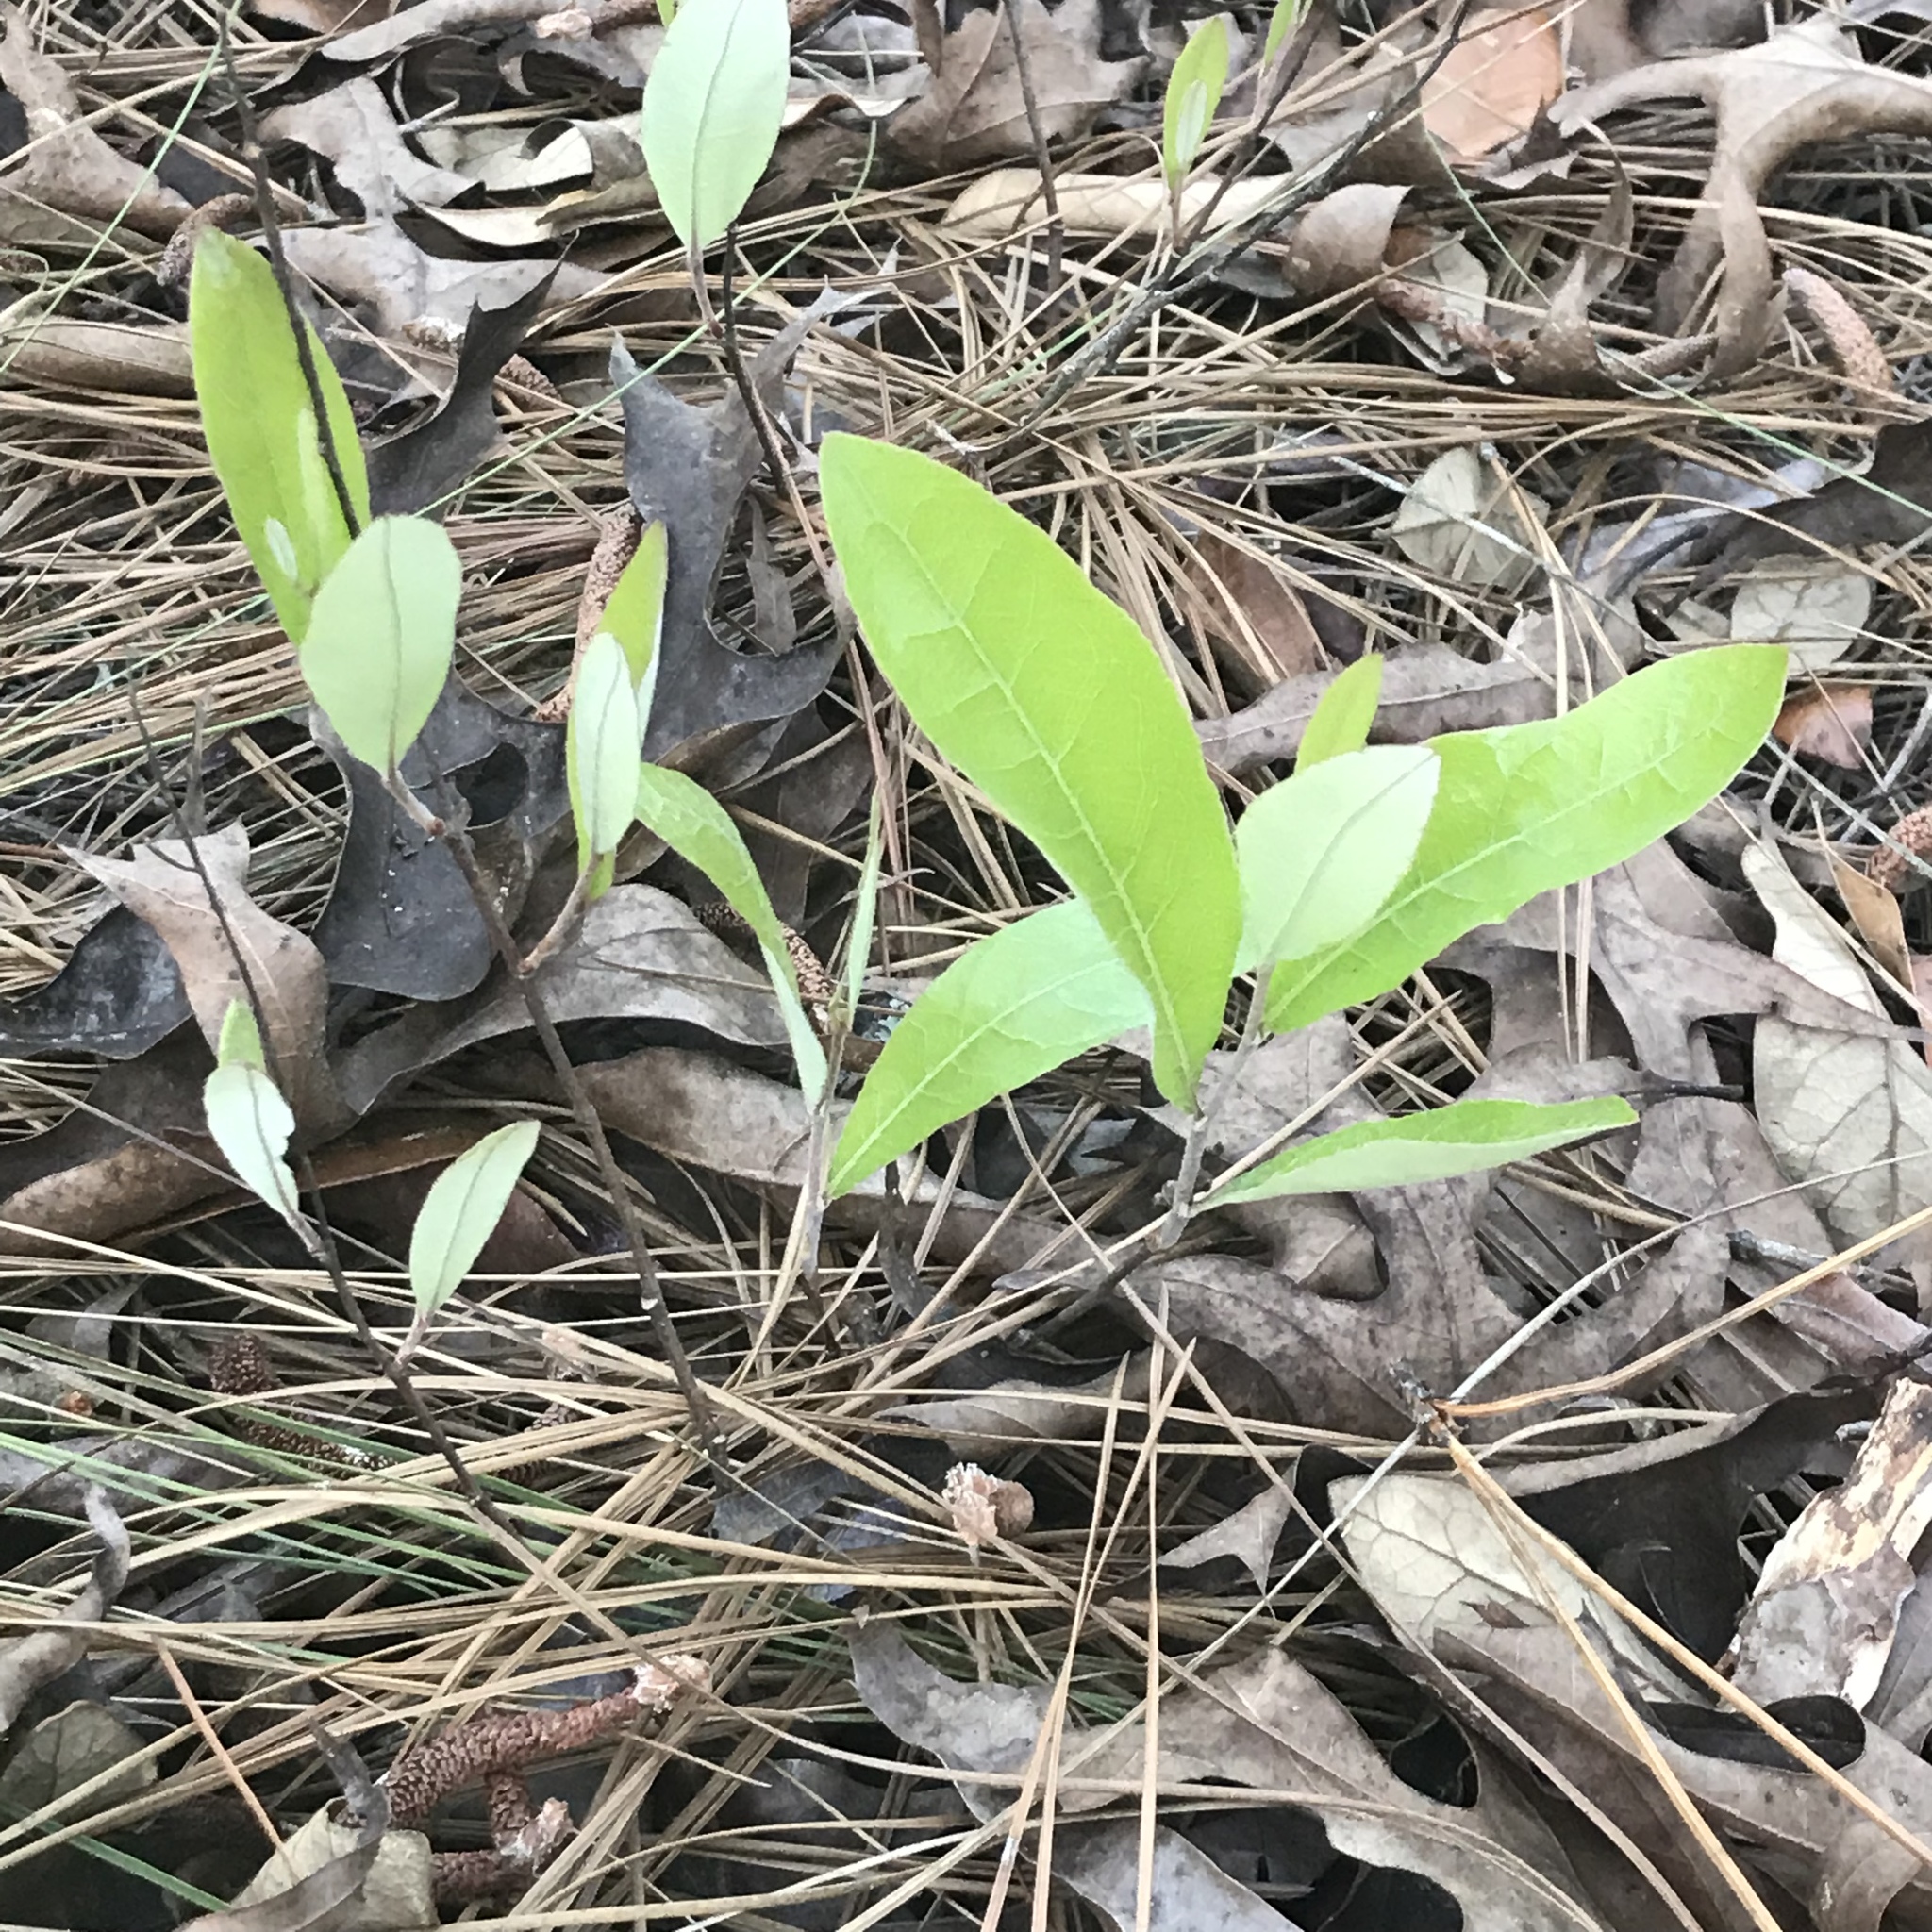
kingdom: Plantae
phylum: Tracheophyta
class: Magnoliopsida
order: Malpighiales
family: Chrysobalanaceae
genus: Geobalanus
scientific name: Geobalanus oblongifolius
